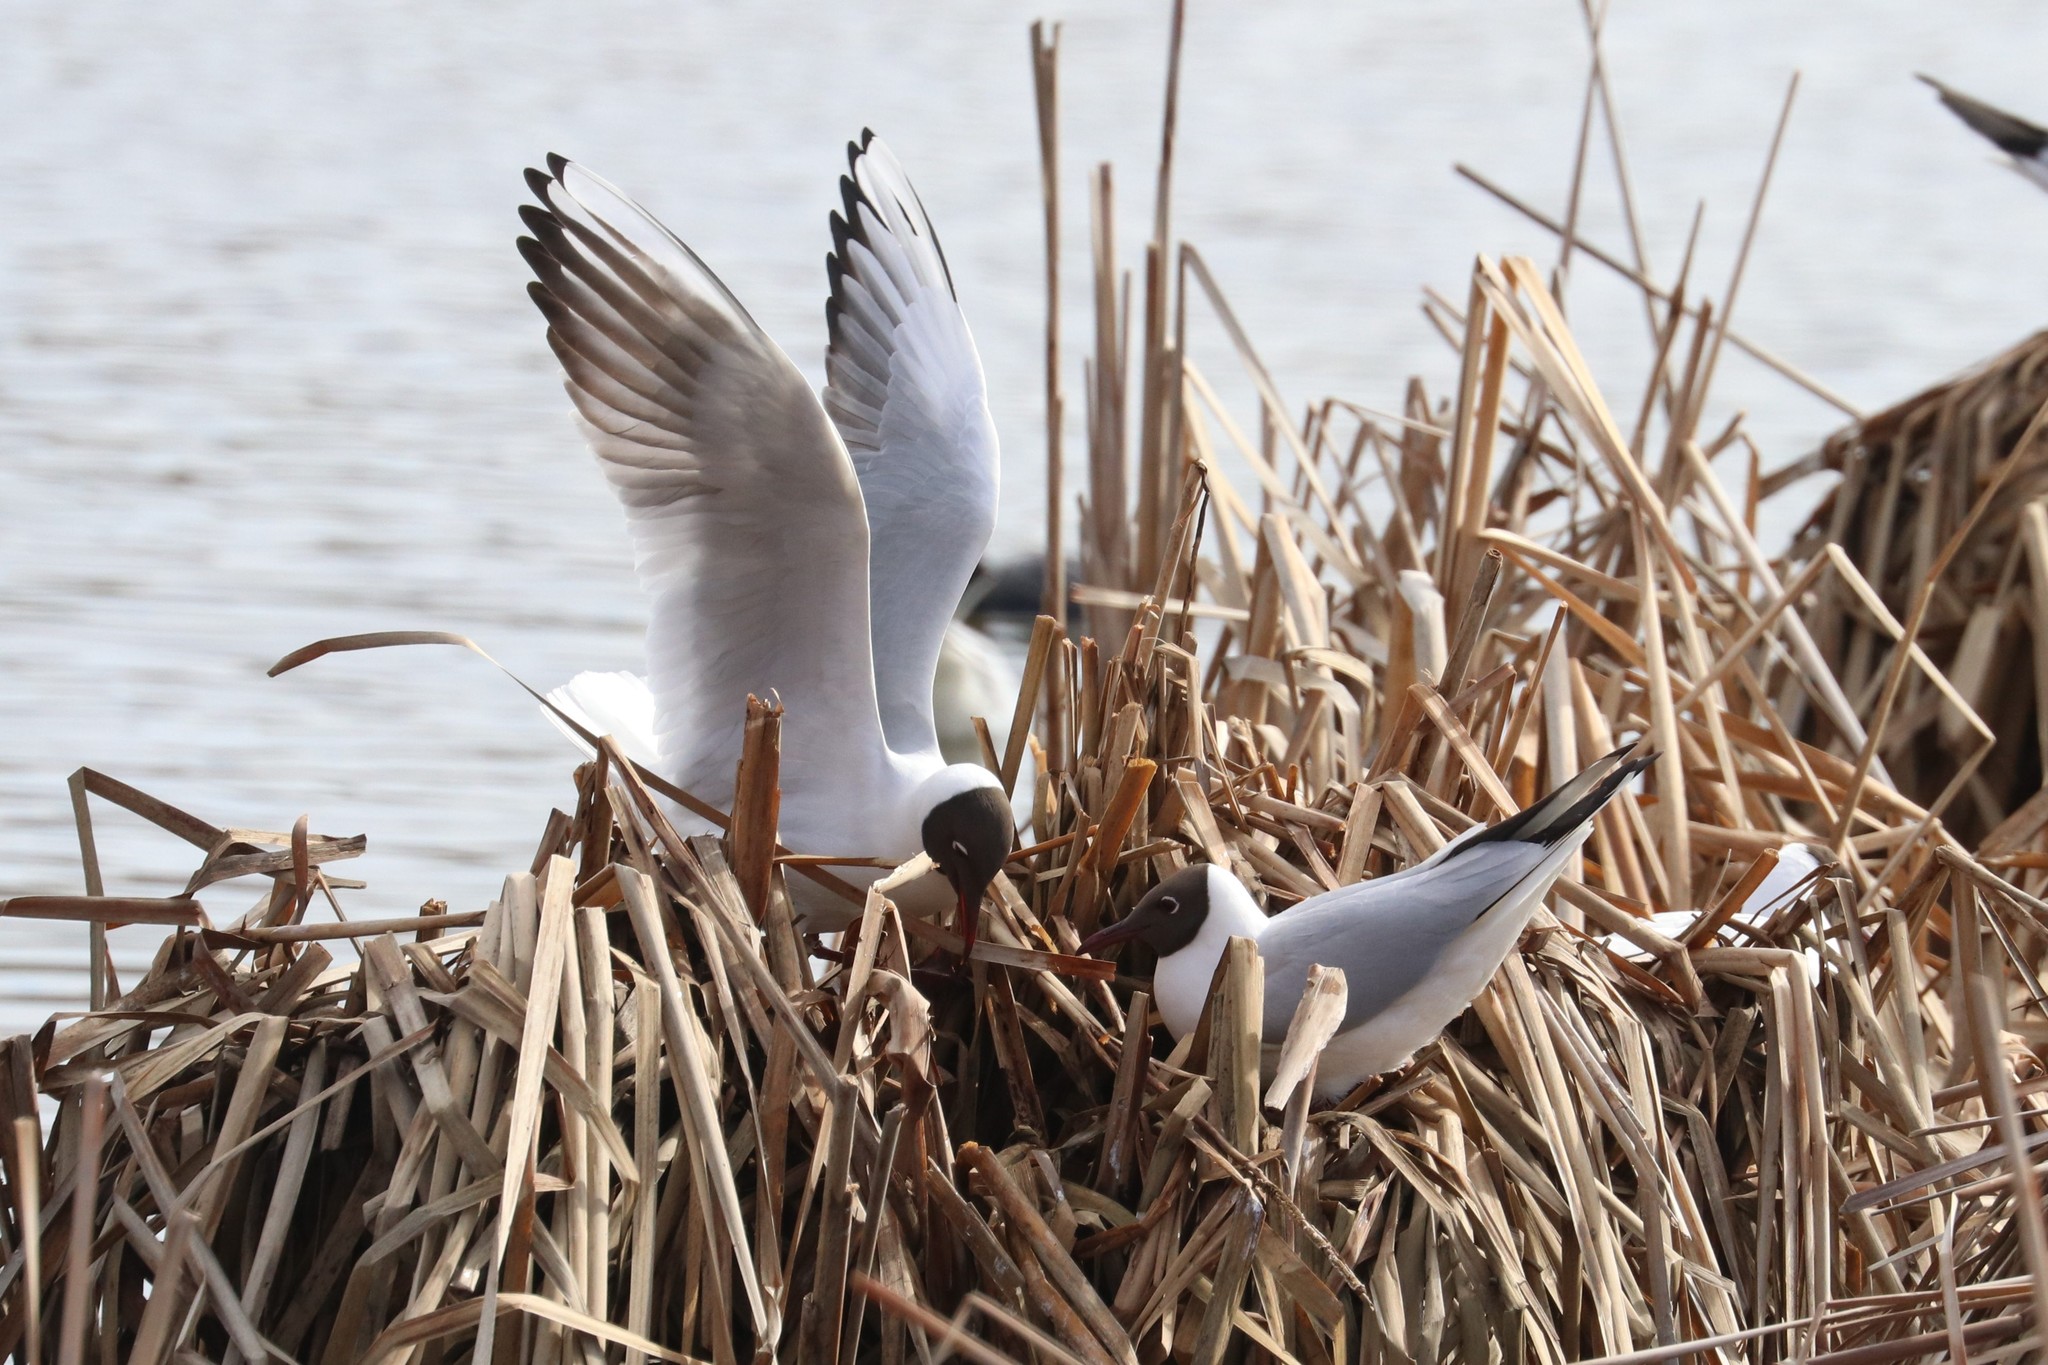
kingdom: Animalia
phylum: Chordata
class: Aves
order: Charadriiformes
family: Laridae
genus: Chroicocephalus
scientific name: Chroicocephalus ridibundus
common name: Black-headed gull
